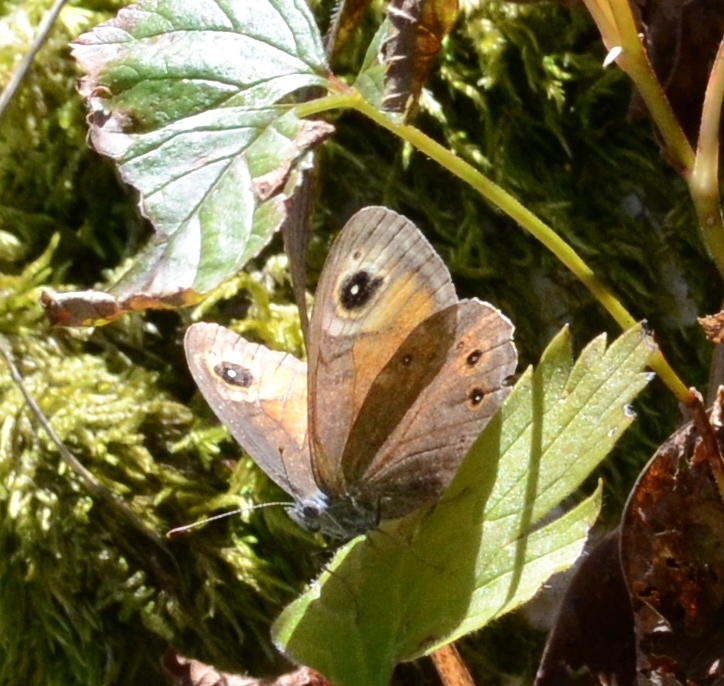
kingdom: Animalia
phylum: Arthropoda
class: Insecta
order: Lepidoptera
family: Nymphalidae
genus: Pararge
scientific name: Pararge Lasiommata maera
